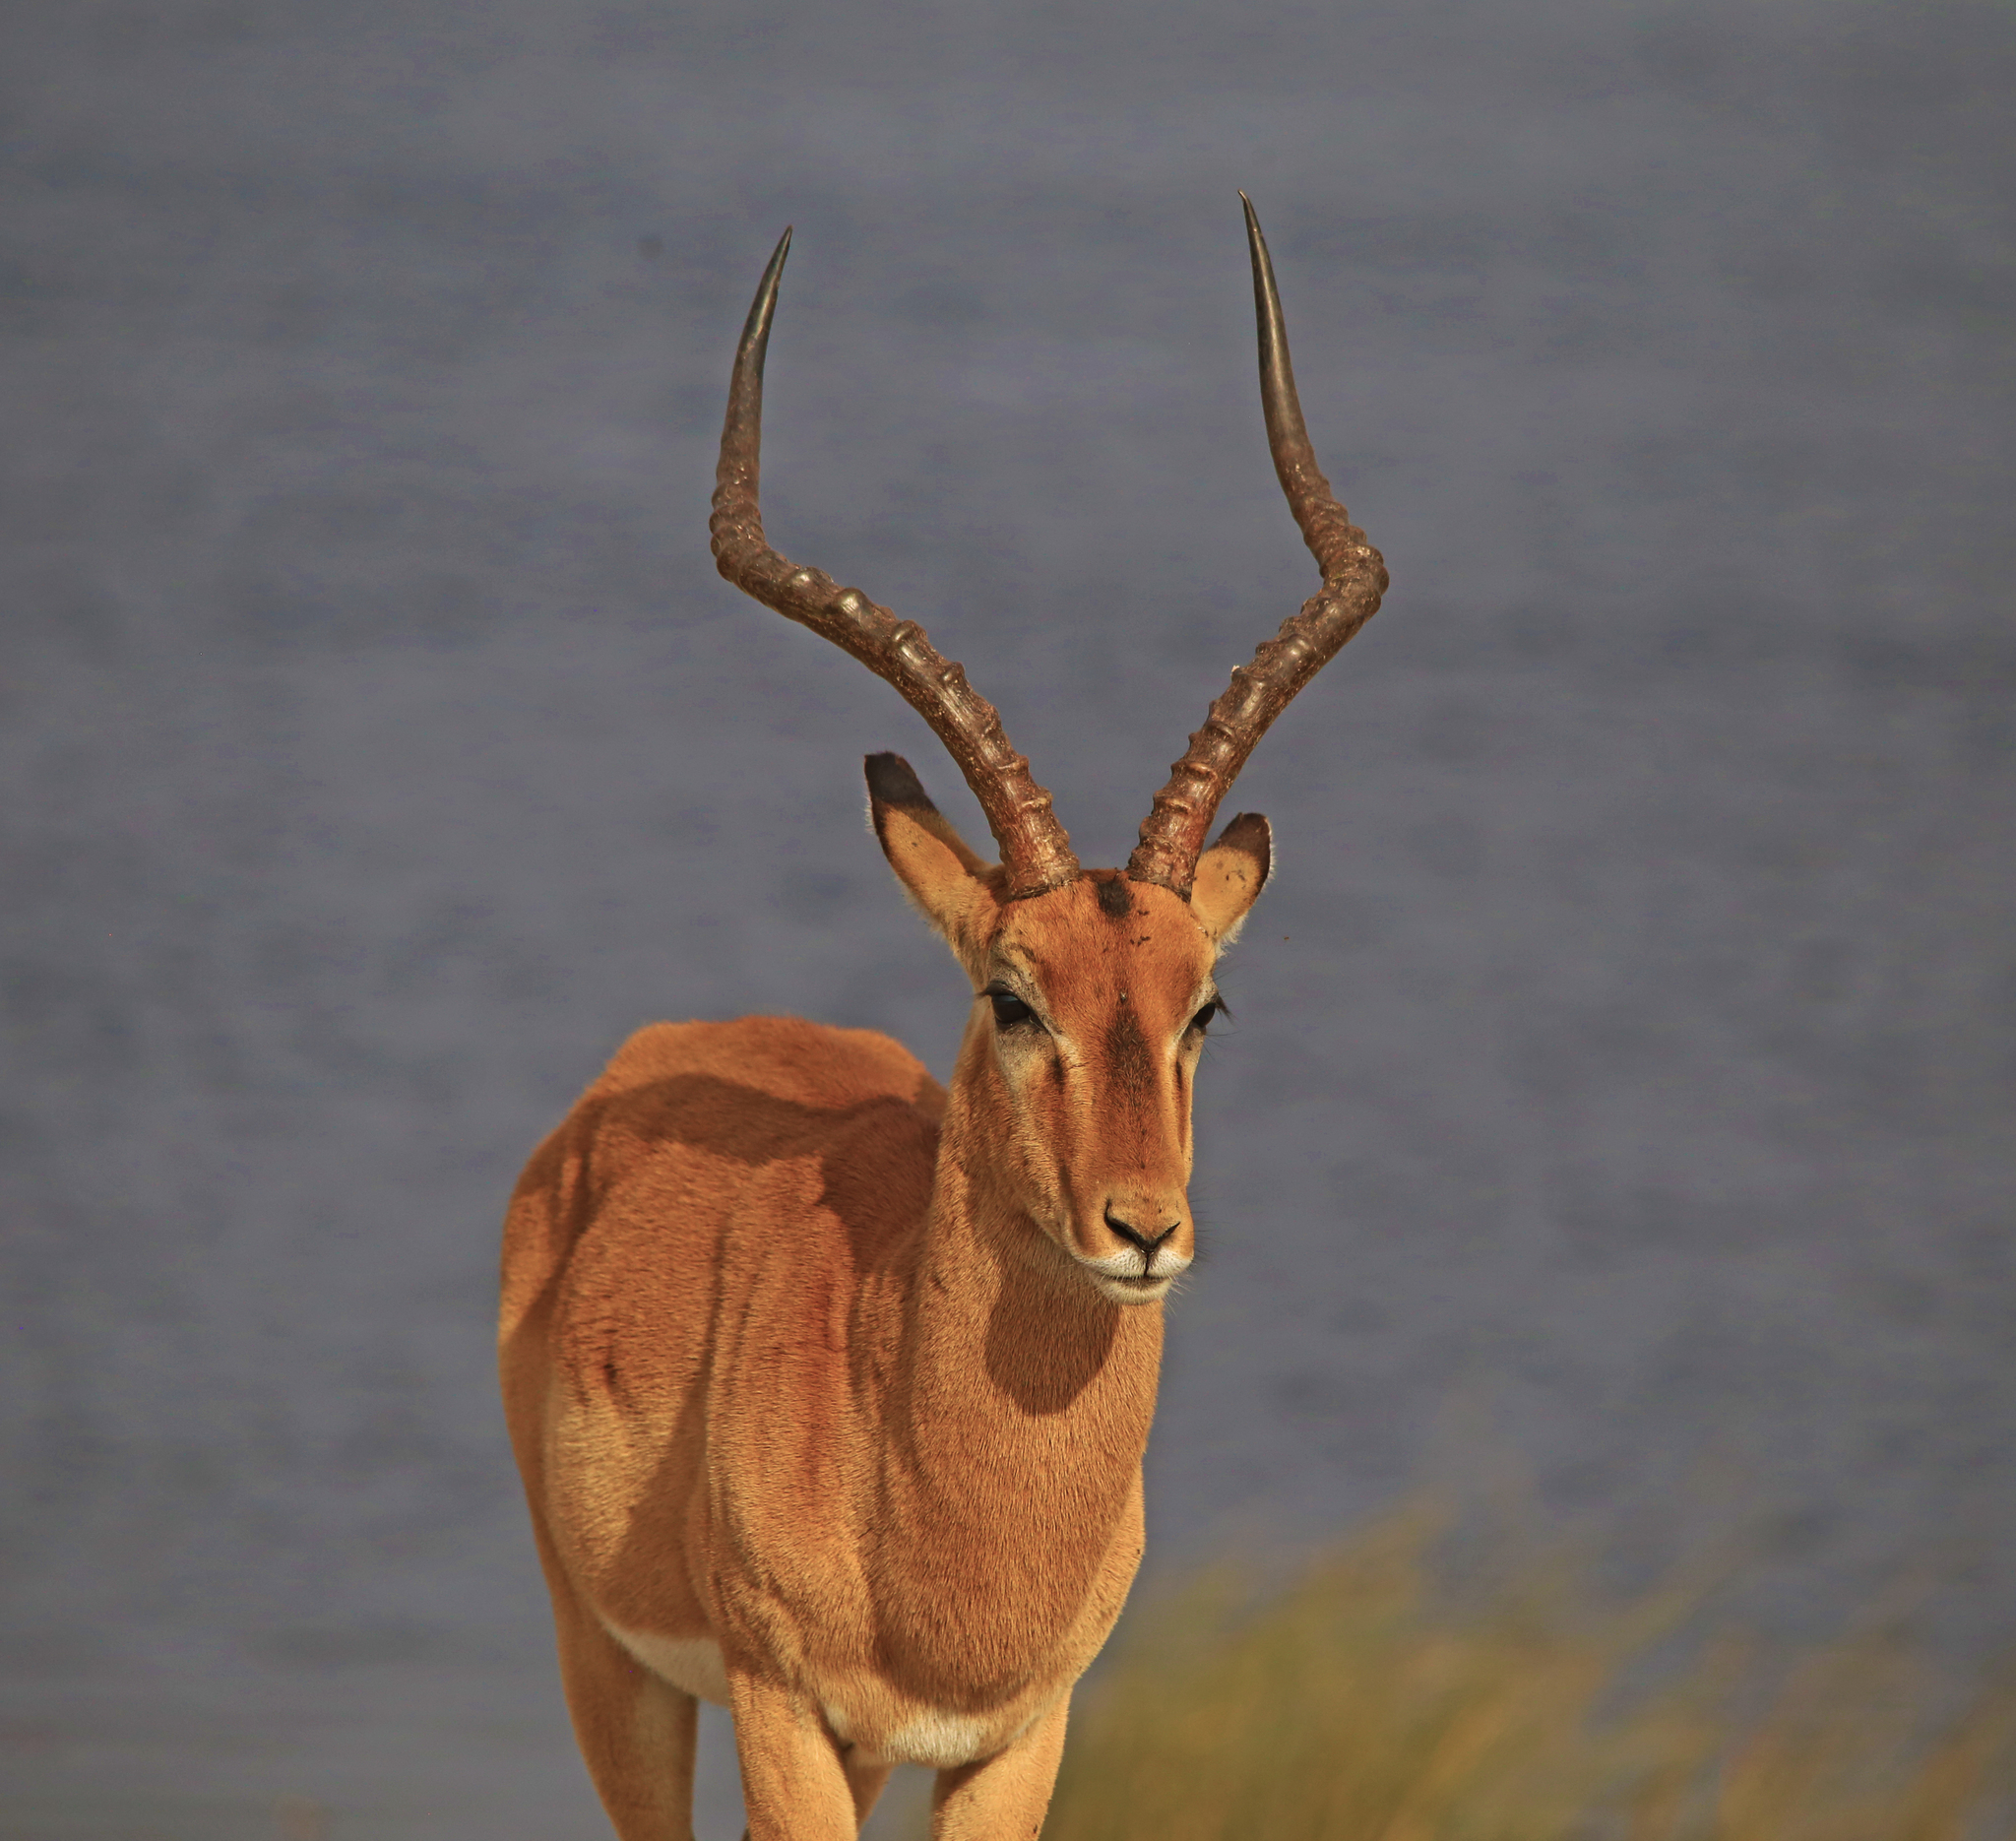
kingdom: Animalia
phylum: Chordata
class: Mammalia
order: Artiodactyla
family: Bovidae
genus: Aepyceros
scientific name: Aepyceros melampus
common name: Impala
